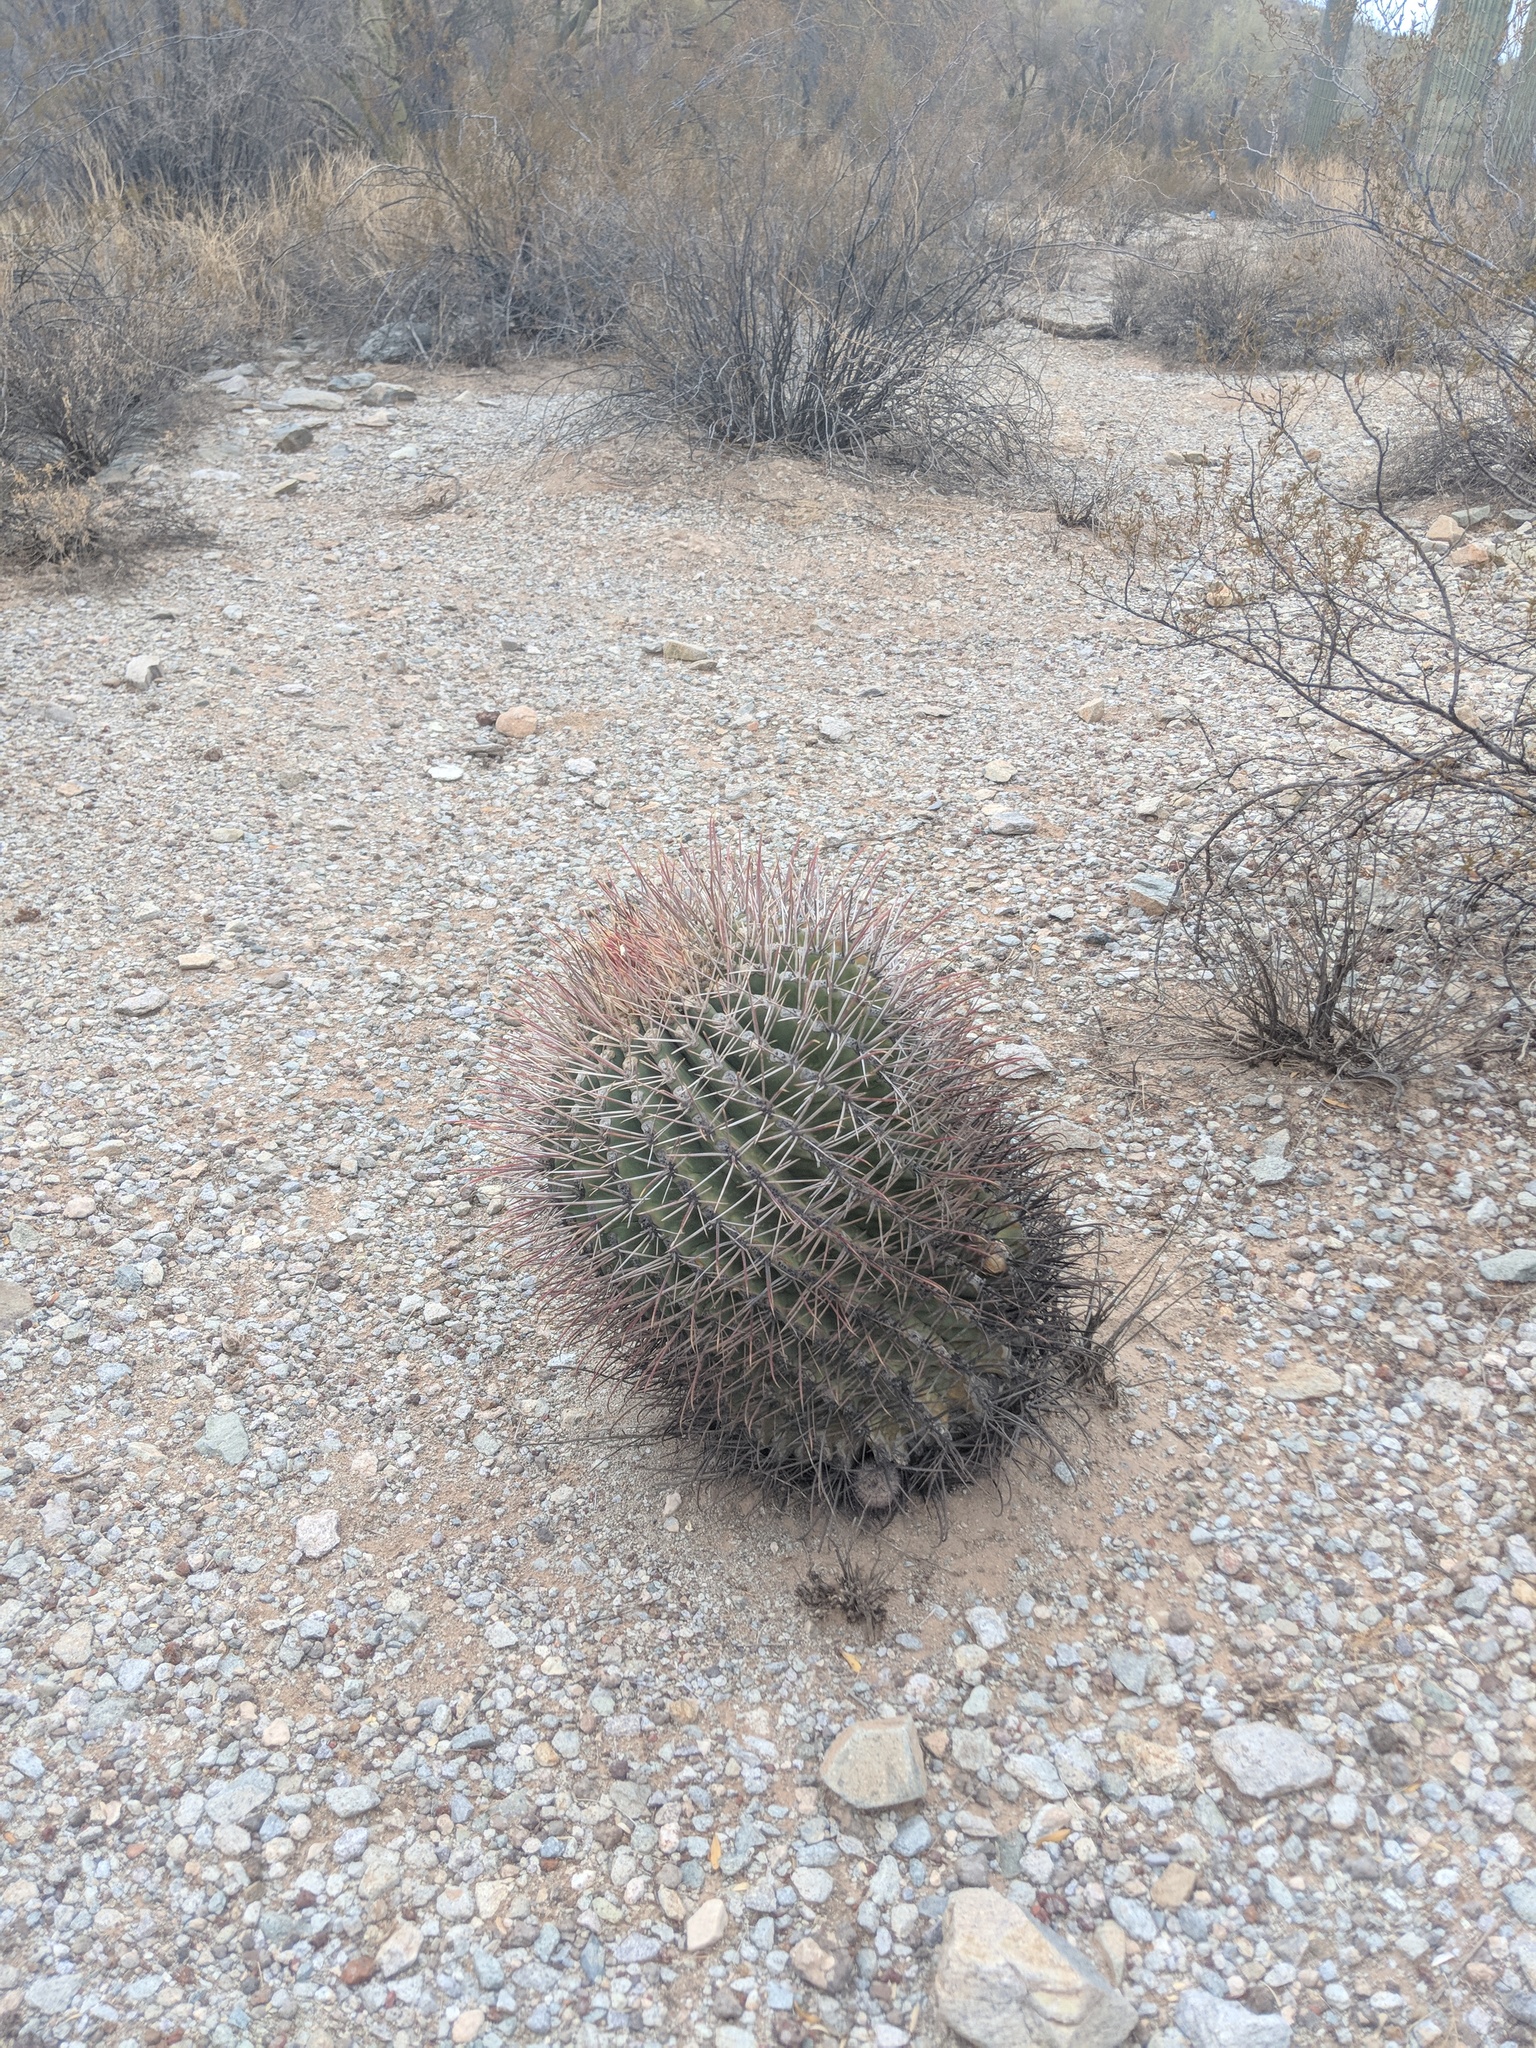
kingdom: Plantae
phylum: Tracheophyta
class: Magnoliopsida
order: Caryophyllales
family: Cactaceae
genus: Ferocactus
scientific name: Ferocactus emoryi
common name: Emory's barrel cactus
